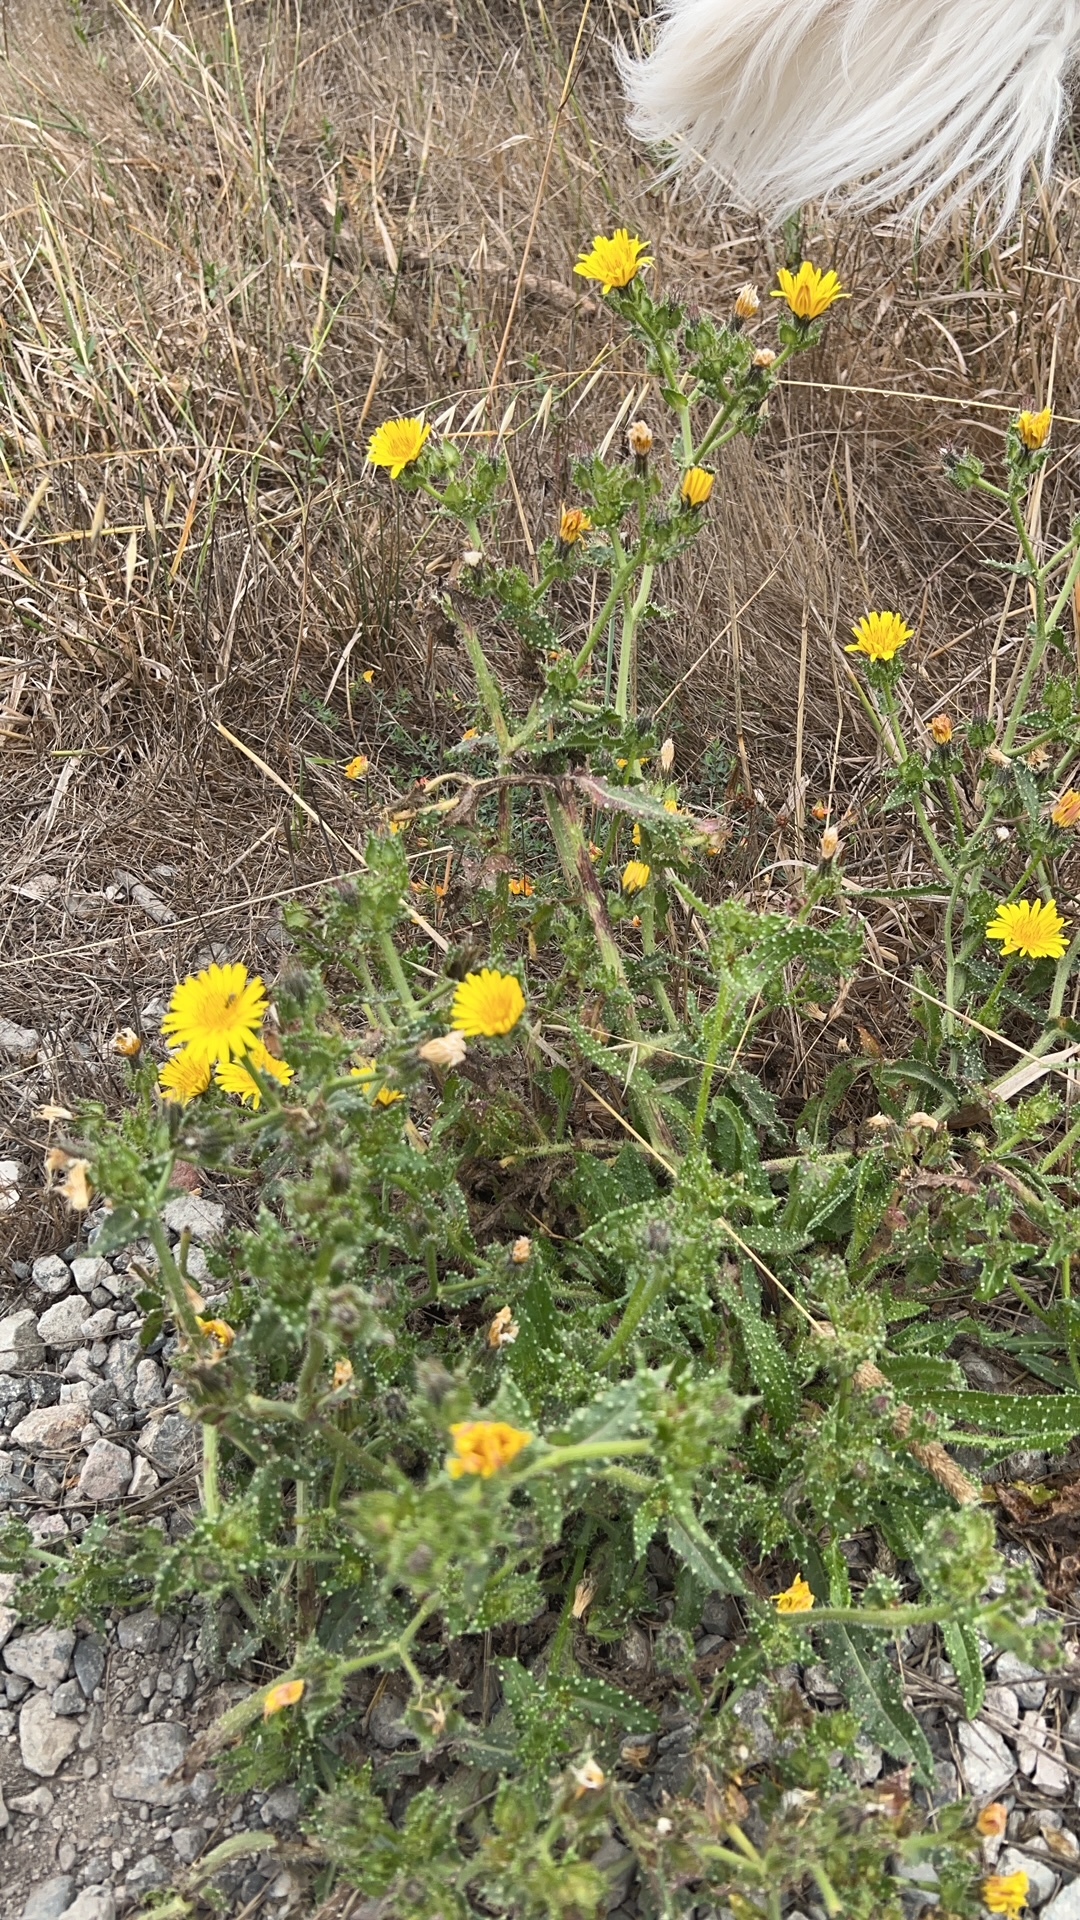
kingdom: Plantae
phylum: Tracheophyta
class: Magnoliopsida
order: Asterales
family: Asteraceae
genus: Helminthotheca
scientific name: Helminthotheca echioides
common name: Ox-tongue
